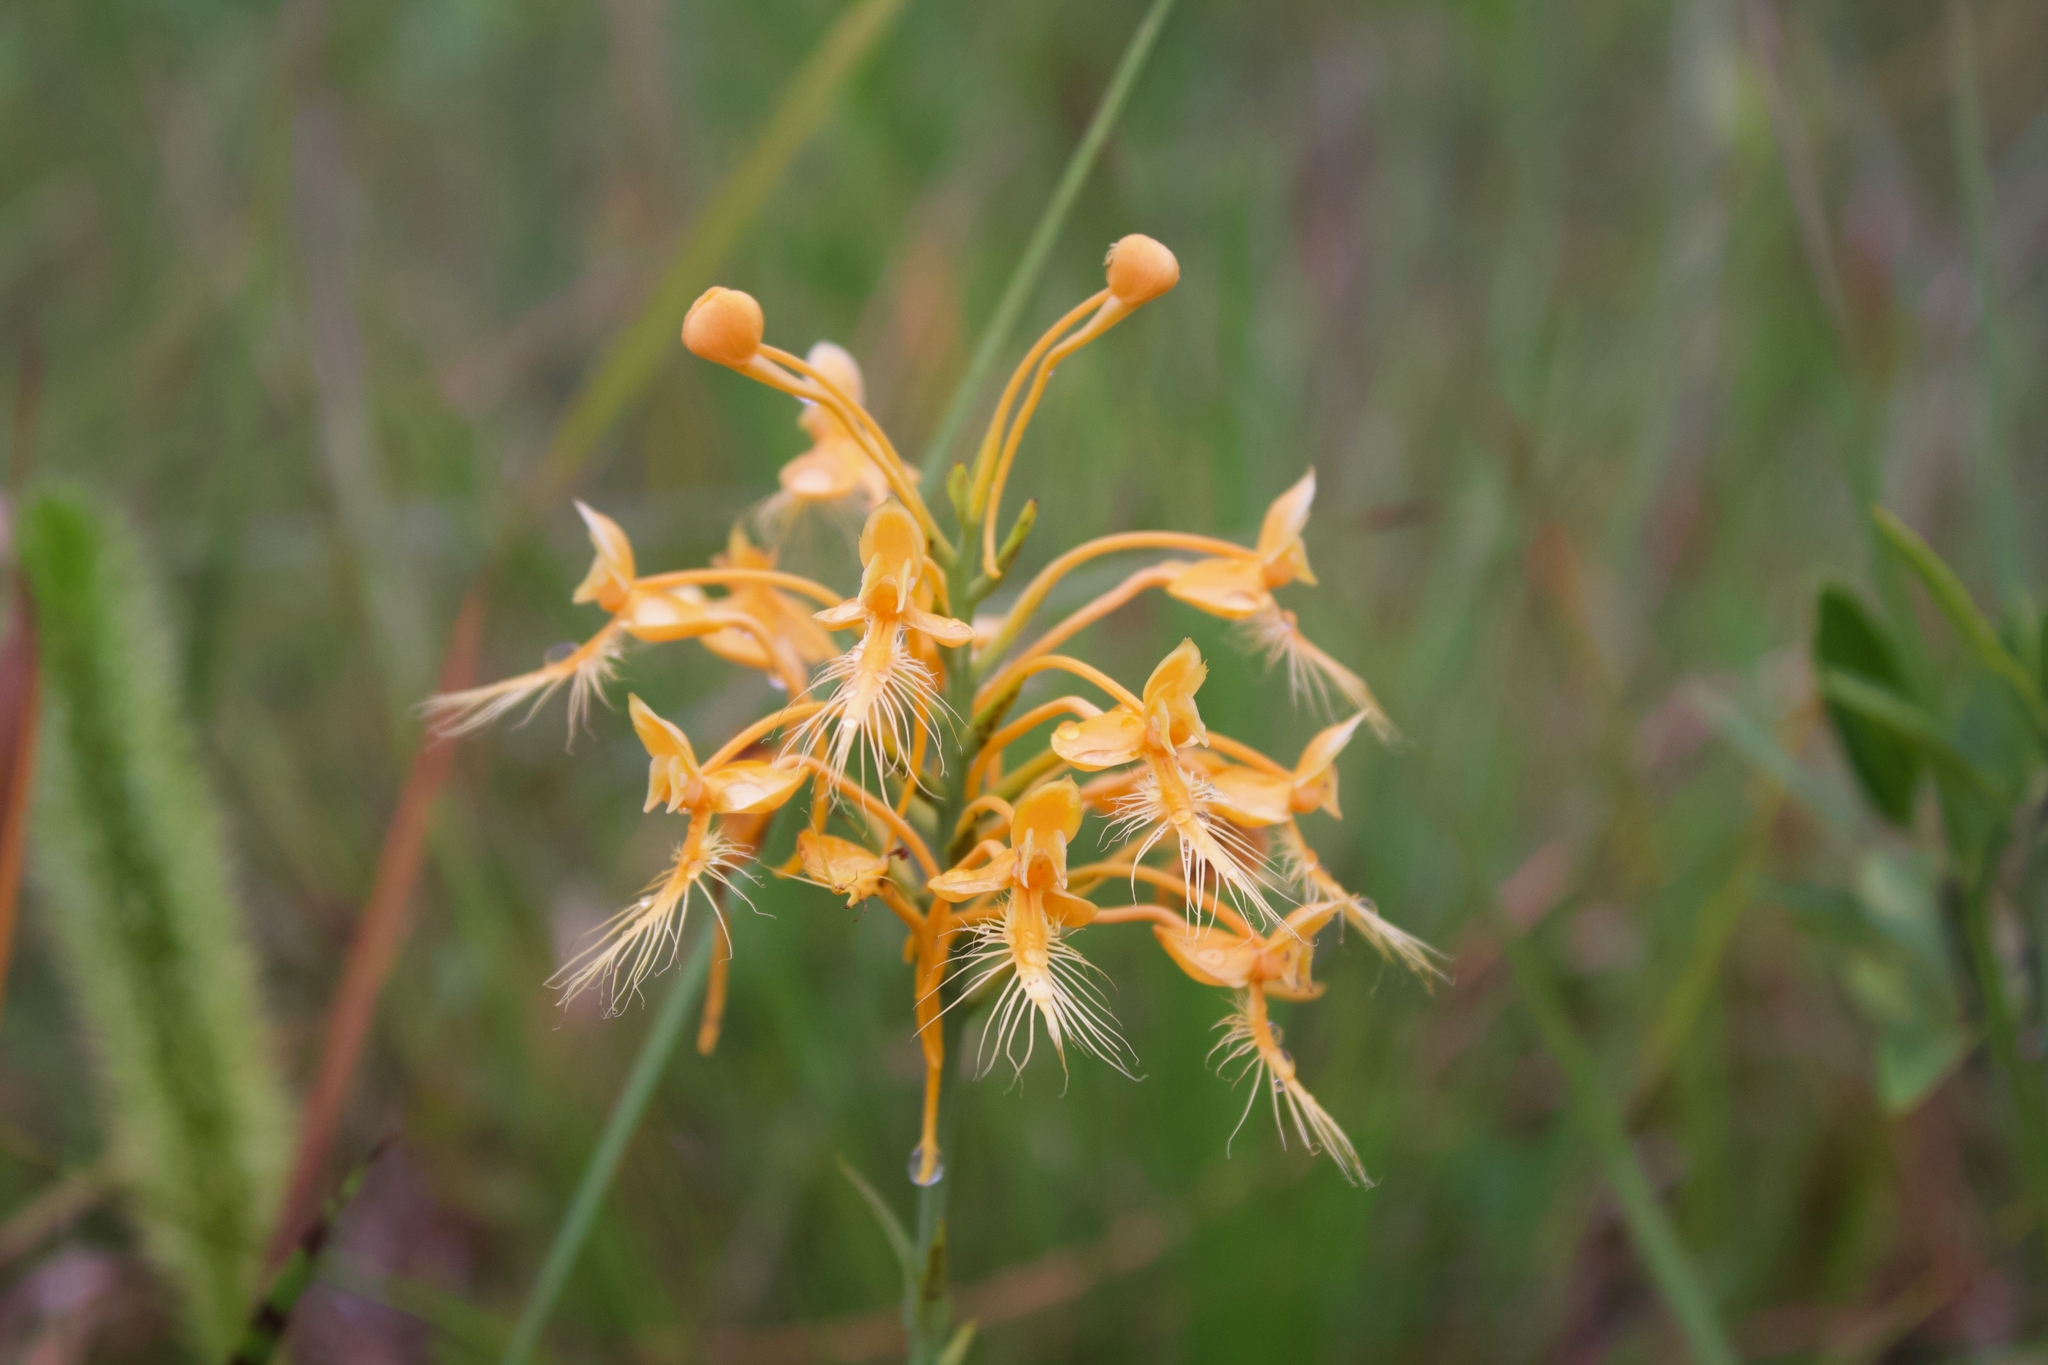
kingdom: Plantae
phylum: Tracheophyta
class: Liliopsida
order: Asparagales
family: Orchidaceae
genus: Platanthera
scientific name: Platanthera ciliaris
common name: Yellow fringed orchid
